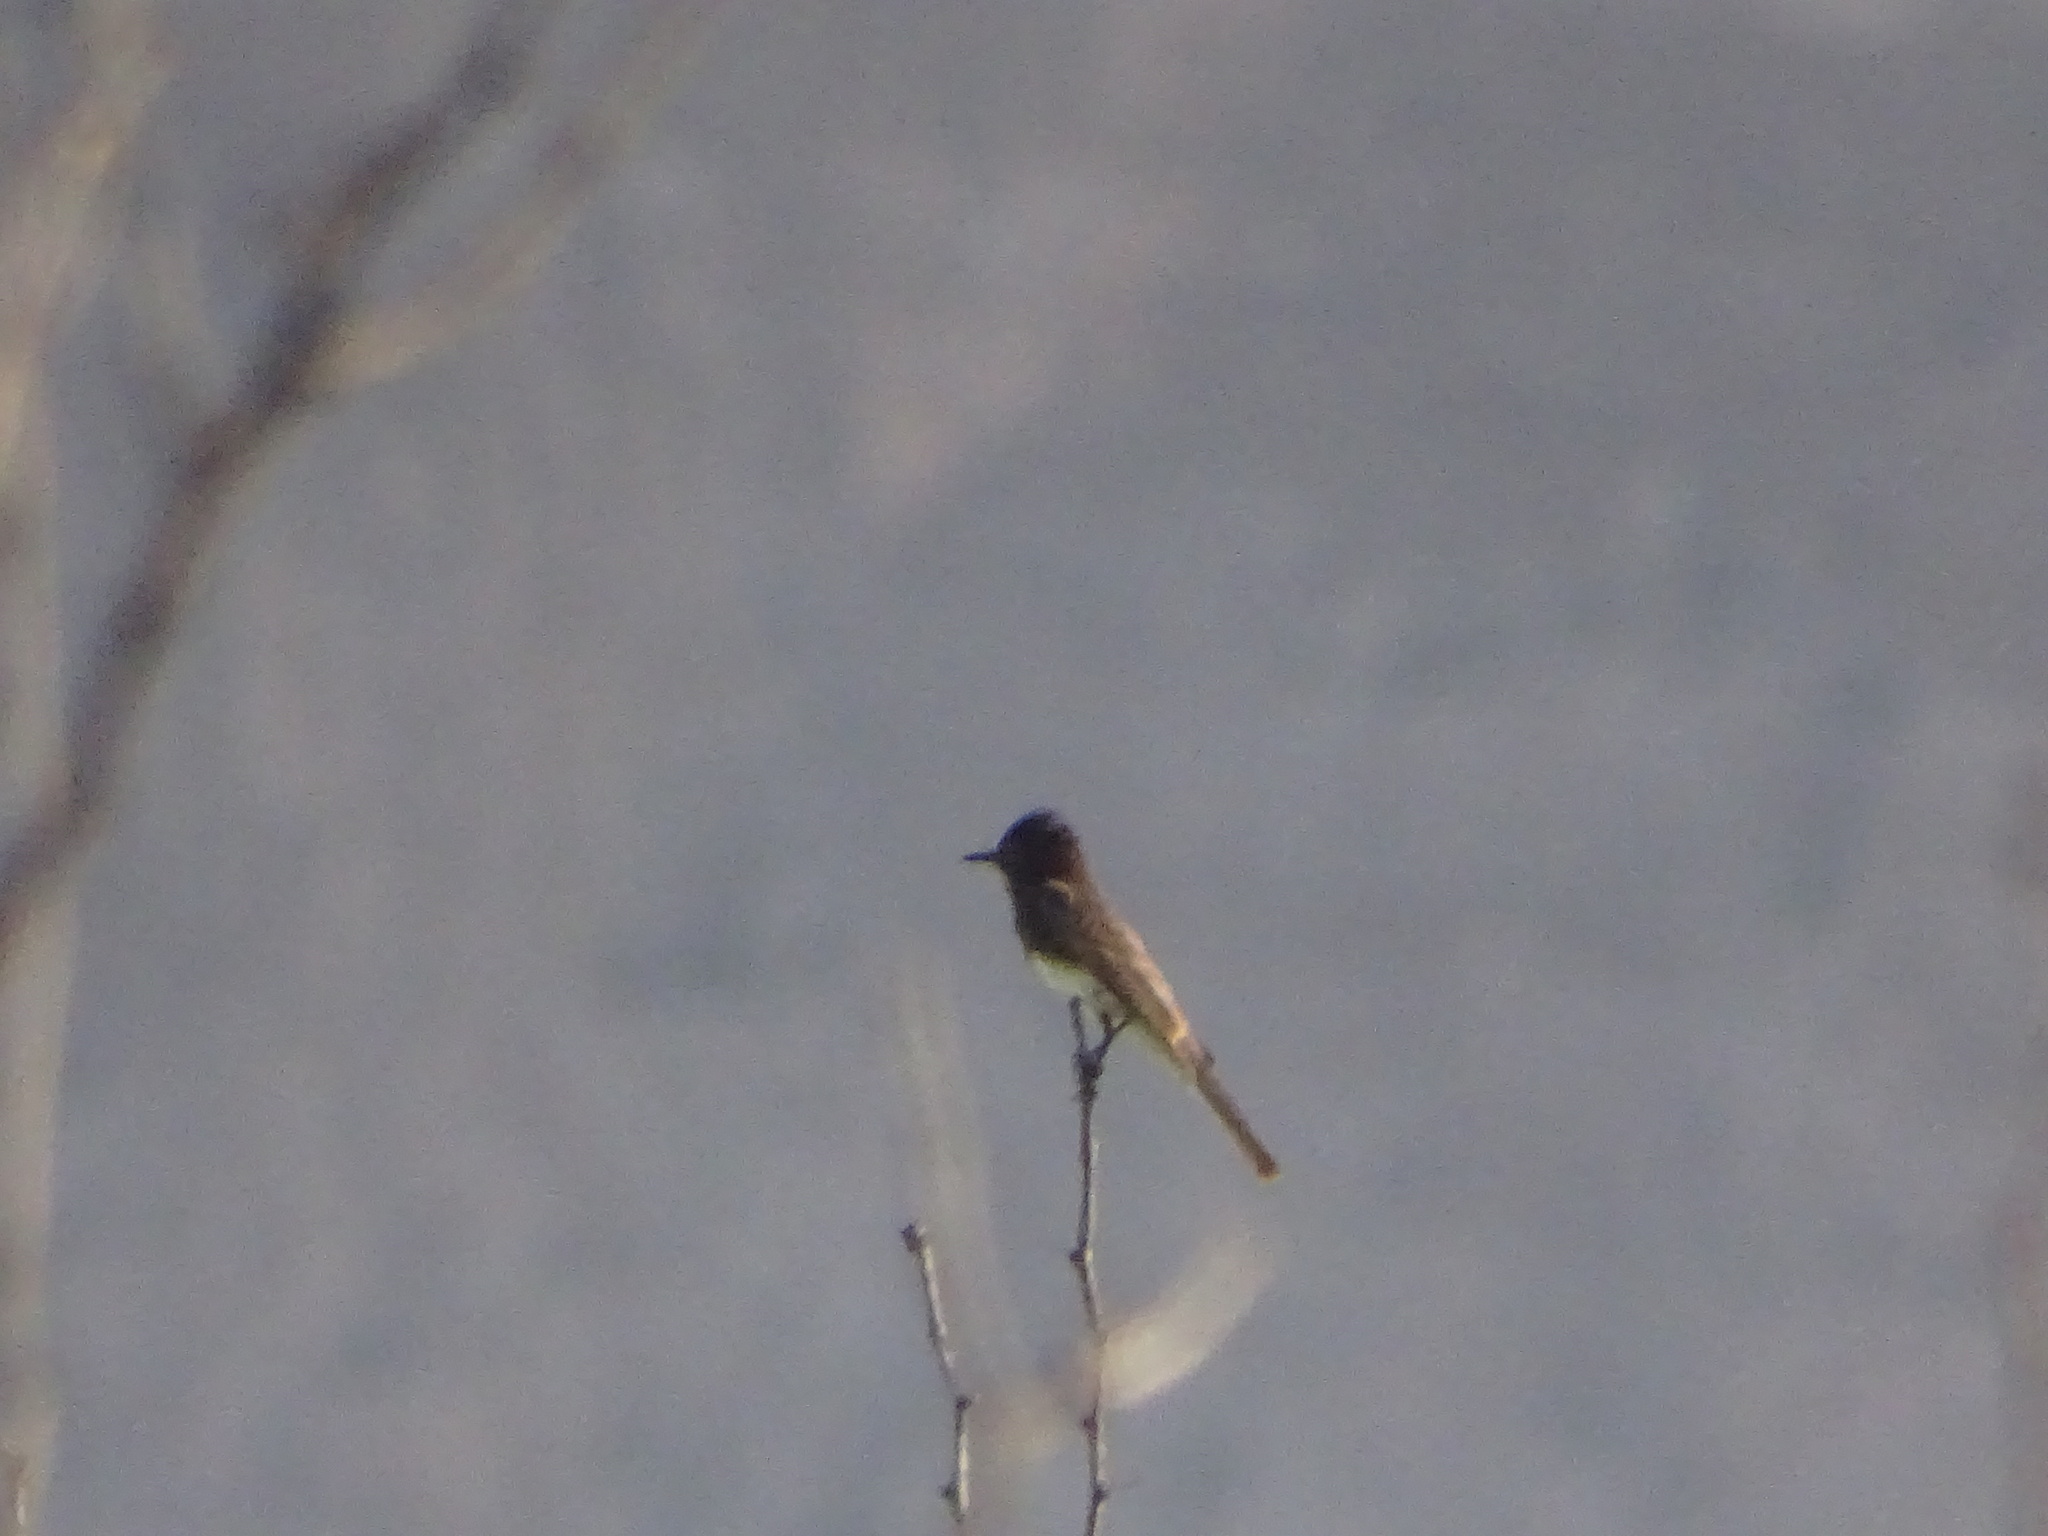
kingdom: Animalia
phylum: Chordata
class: Aves
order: Passeriformes
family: Tyrannidae
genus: Sayornis
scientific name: Sayornis nigricans
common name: Black phoebe
